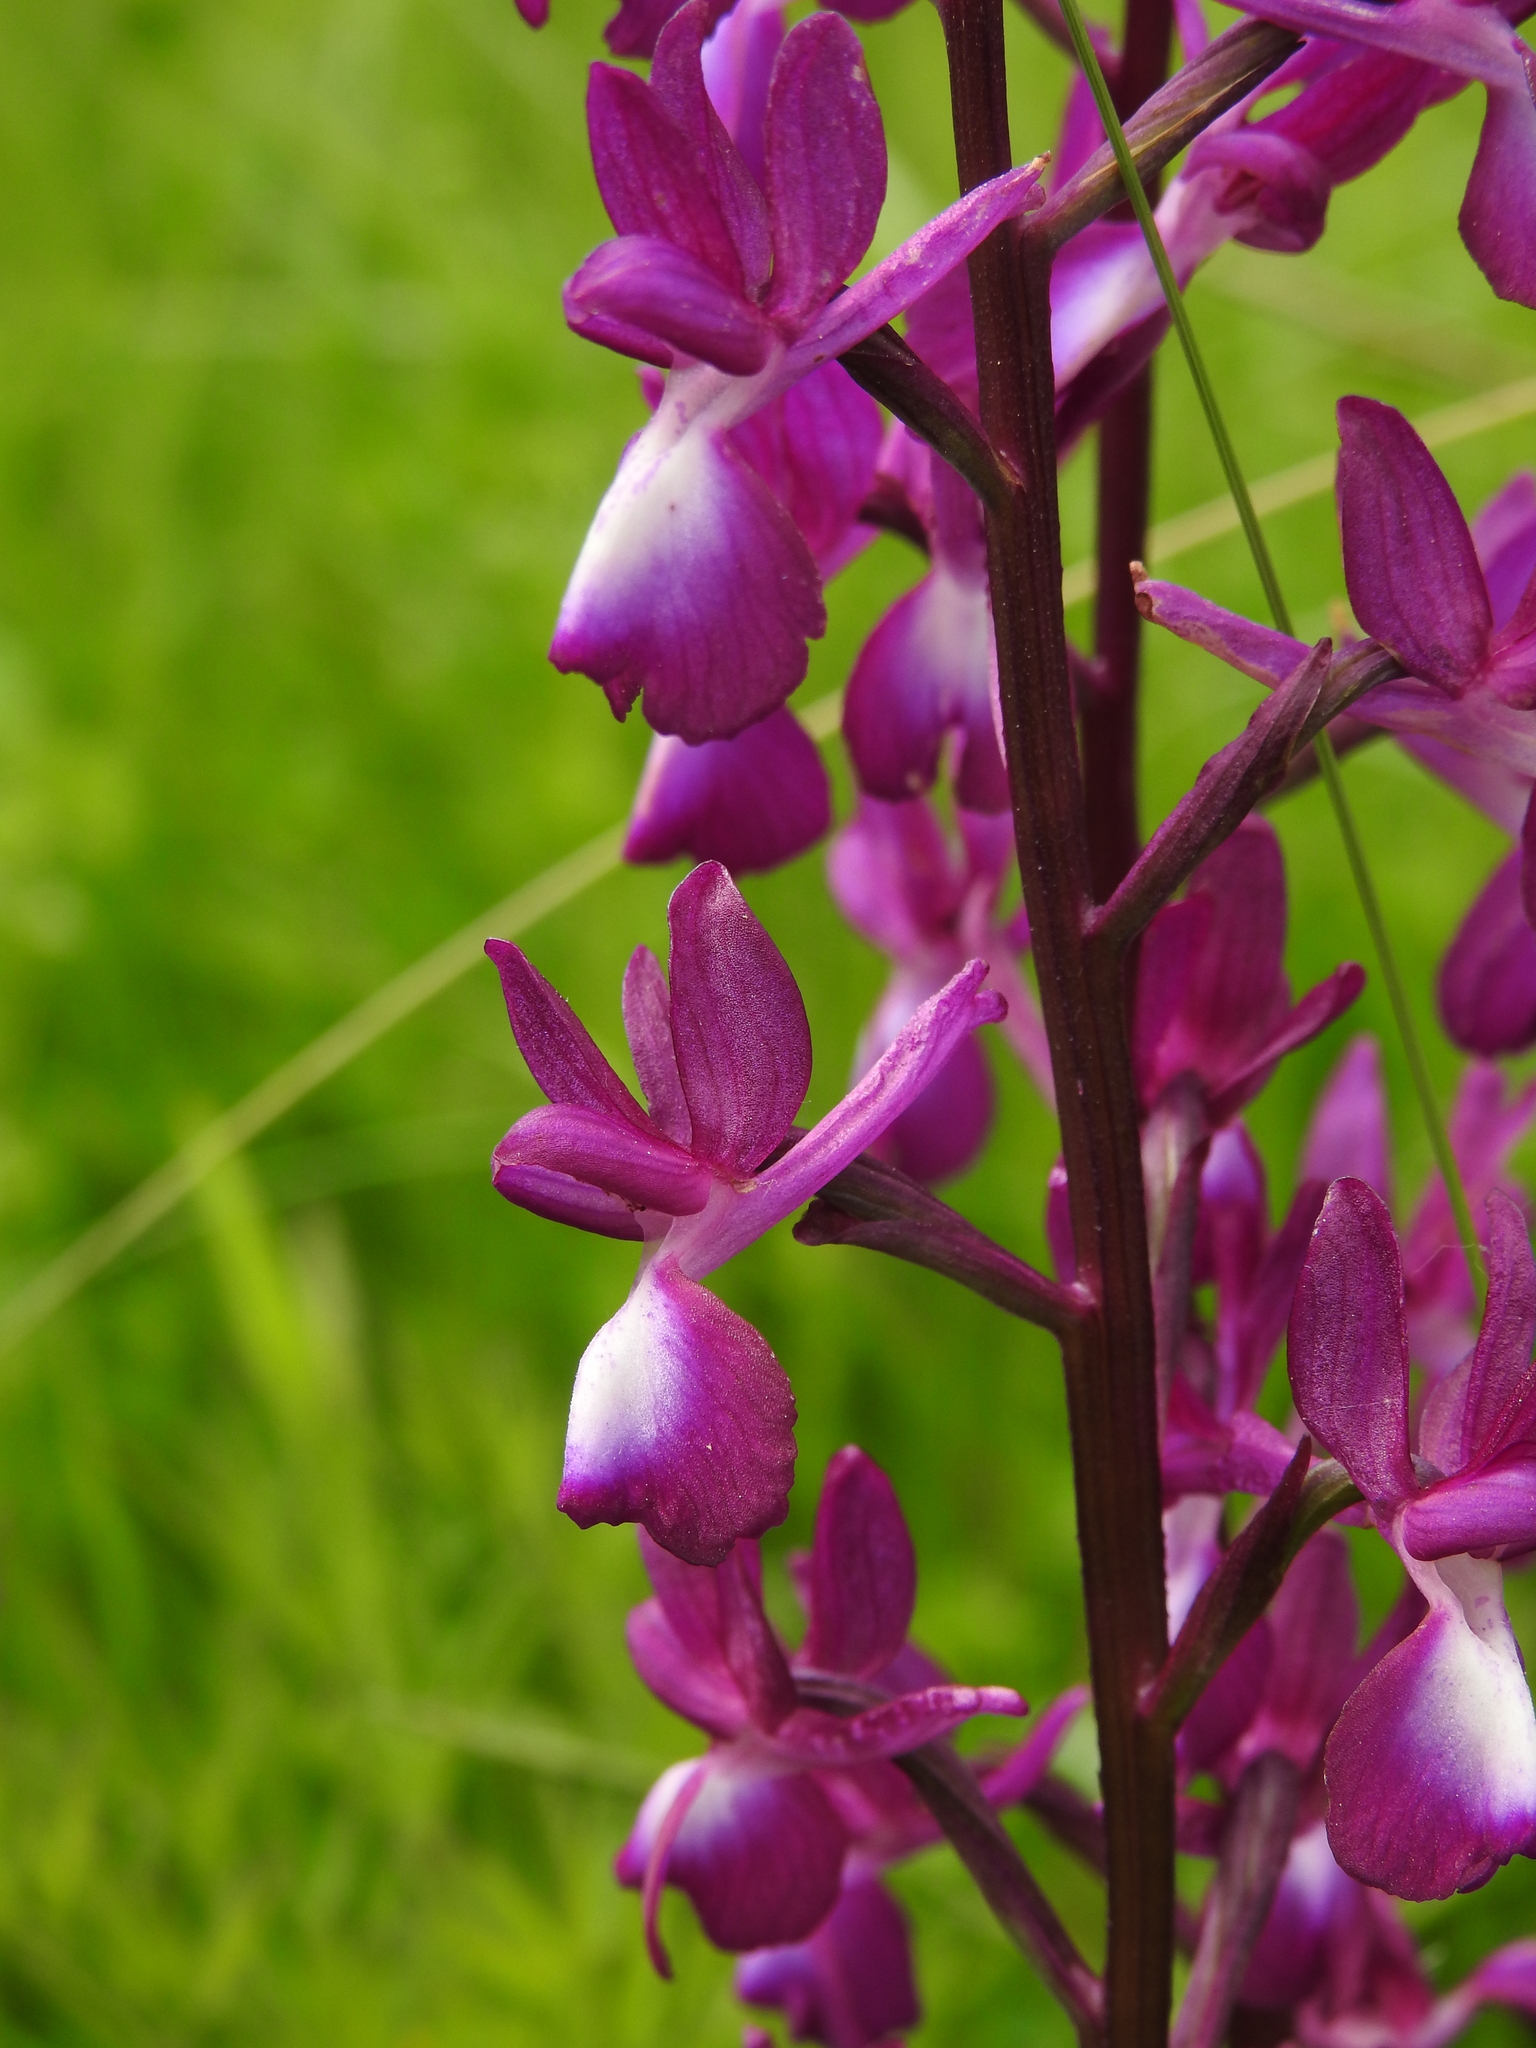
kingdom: Plantae
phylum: Tracheophyta
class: Liliopsida
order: Asparagales
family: Orchidaceae
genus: Anacamptis
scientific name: Anacamptis laxiflora
